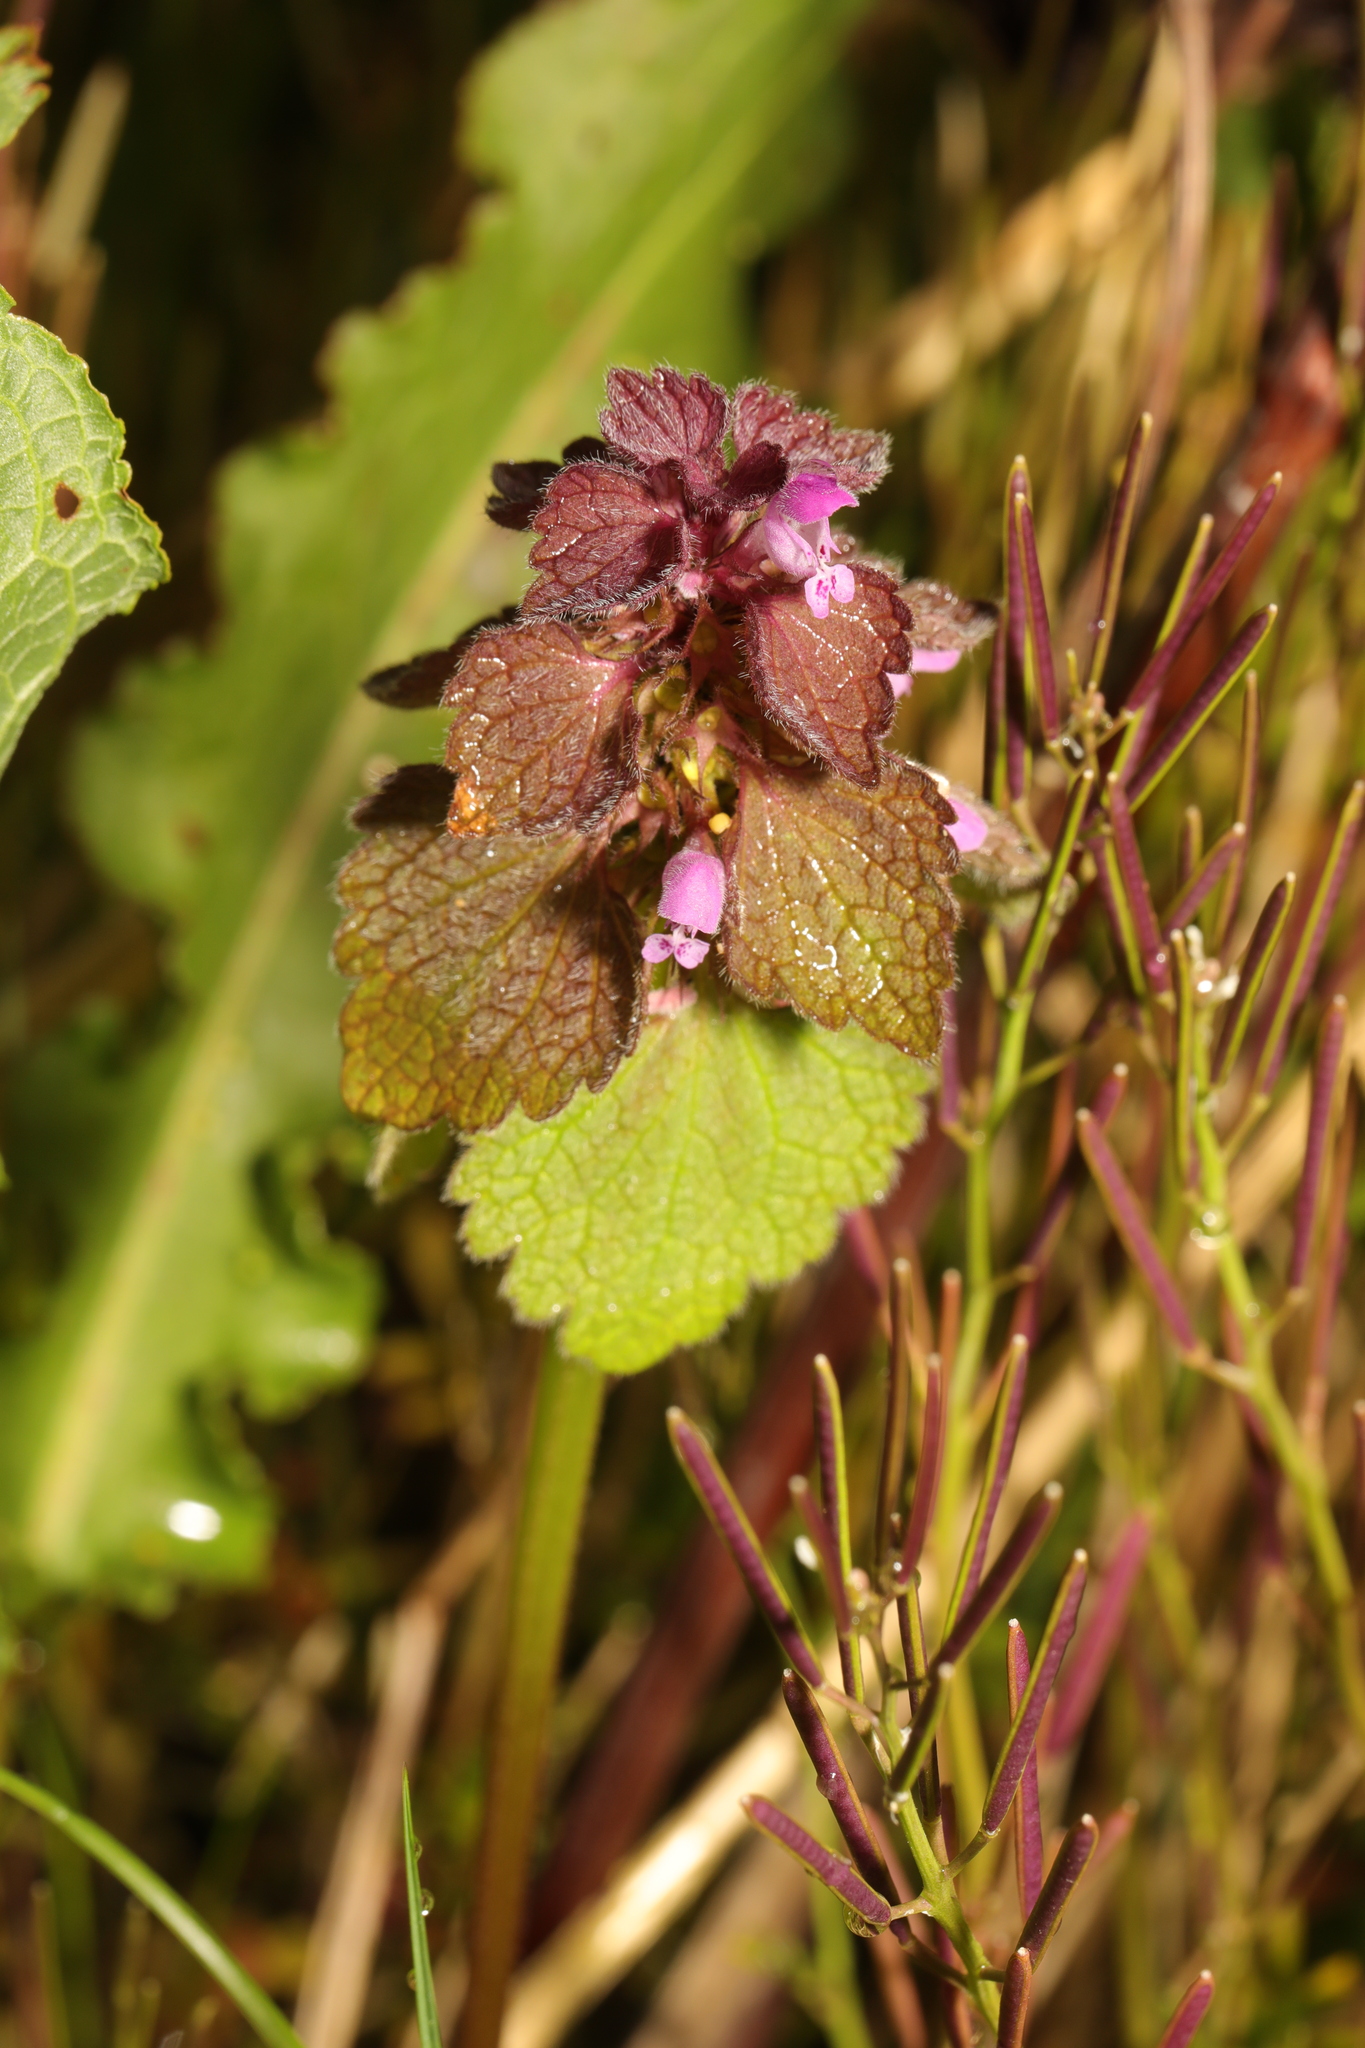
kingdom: Plantae
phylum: Tracheophyta
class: Magnoliopsida
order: Lamiales
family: Lamiaceae
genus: Lamium
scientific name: Lamium purpureum
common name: Red dead-nettle
